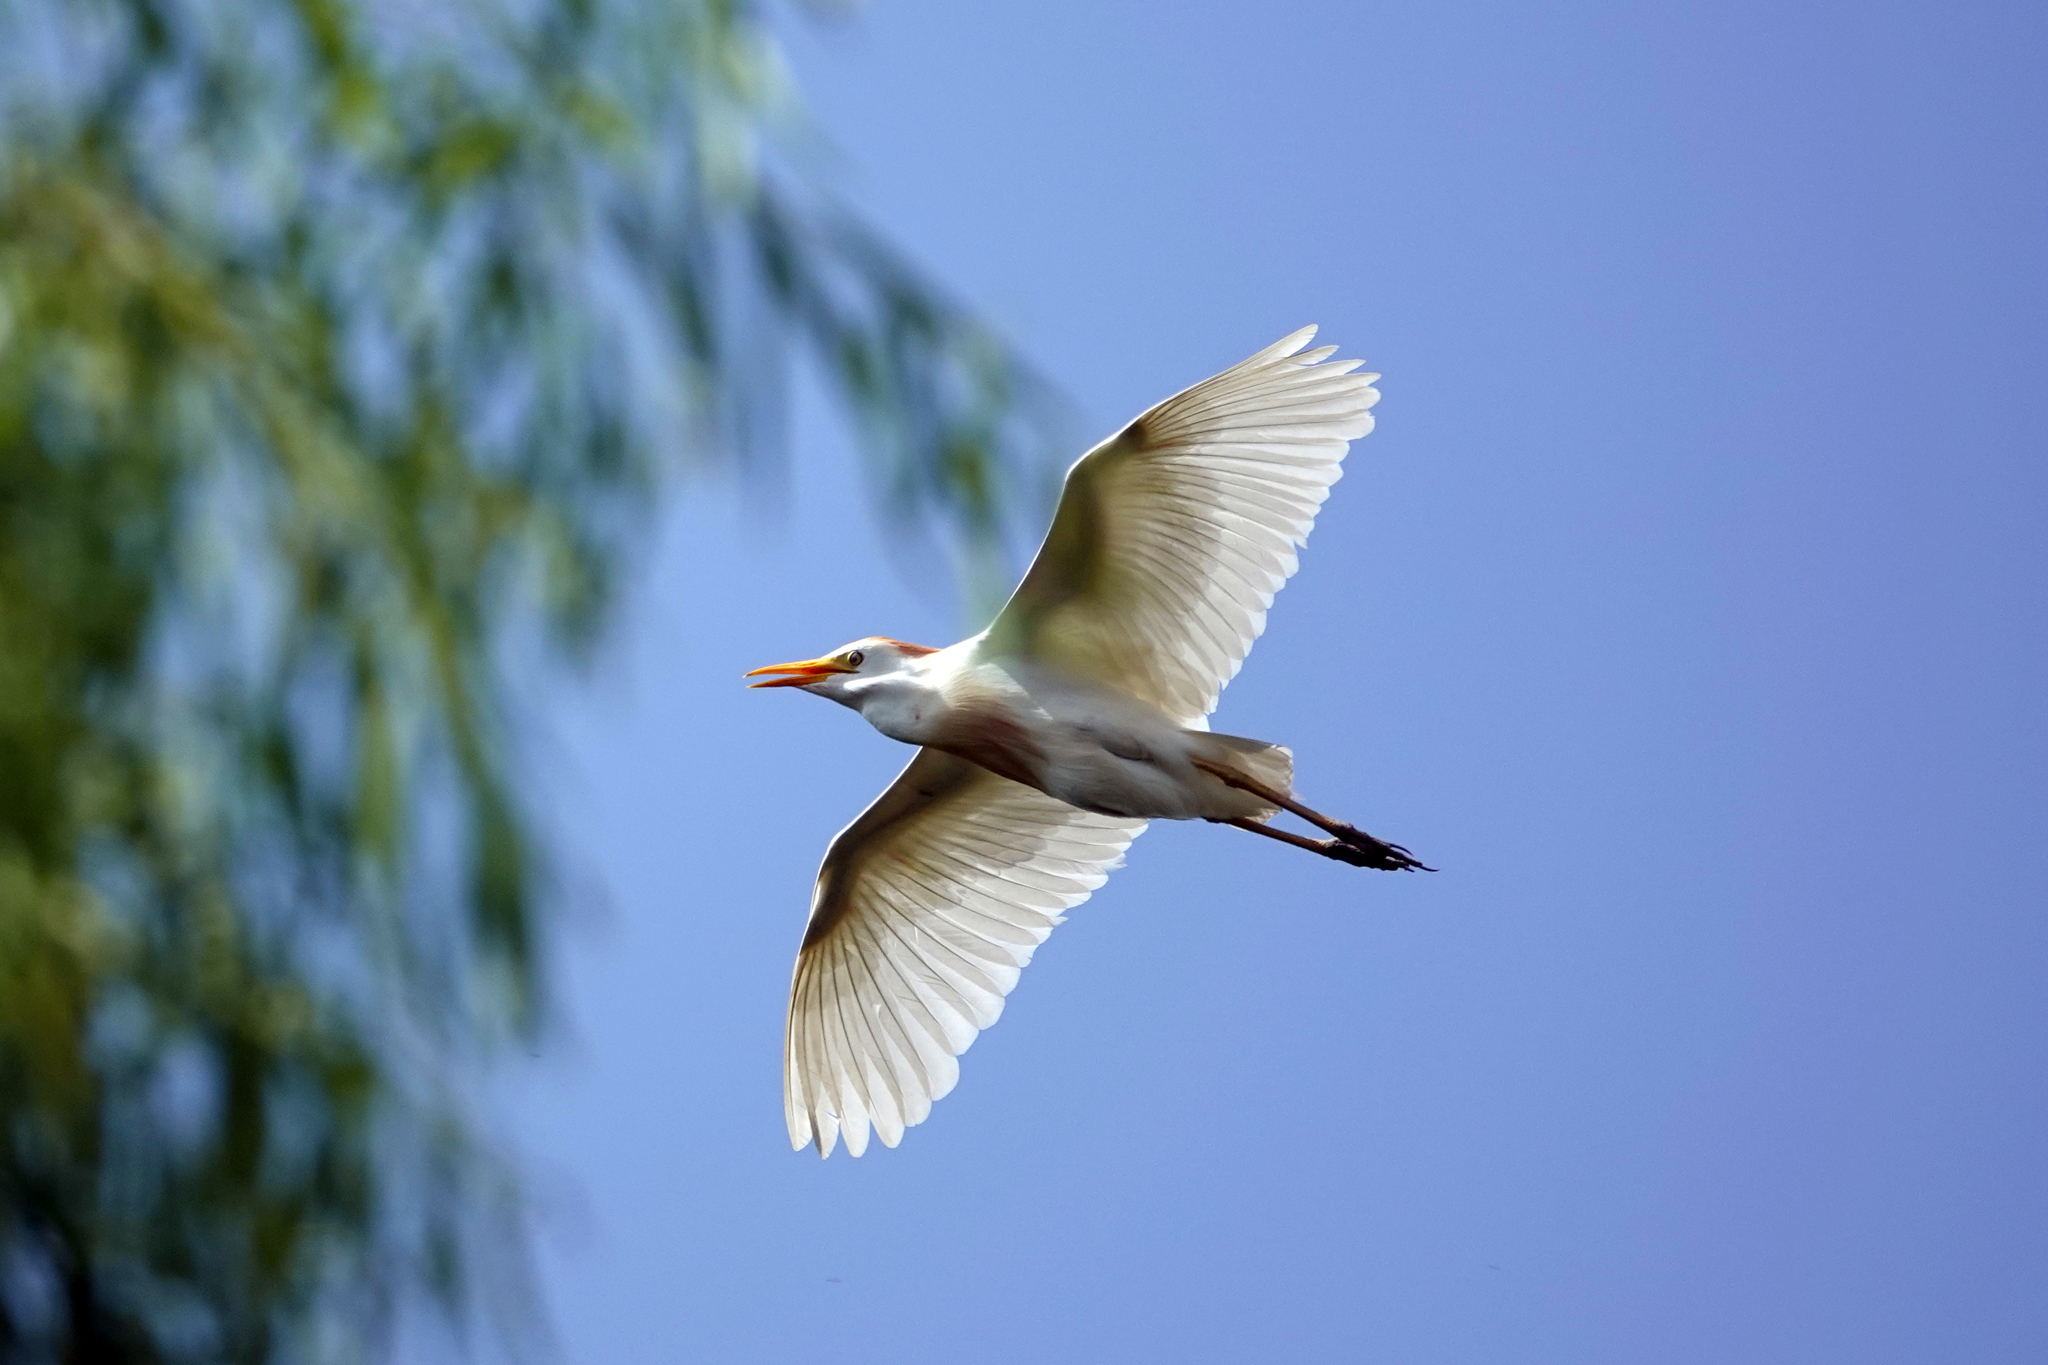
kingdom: Animalia
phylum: Chordata
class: Aves
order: Pelecaniformes
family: Ardeidae
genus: Bubulcus
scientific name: Bubulcus ibis
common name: Cattle egret
